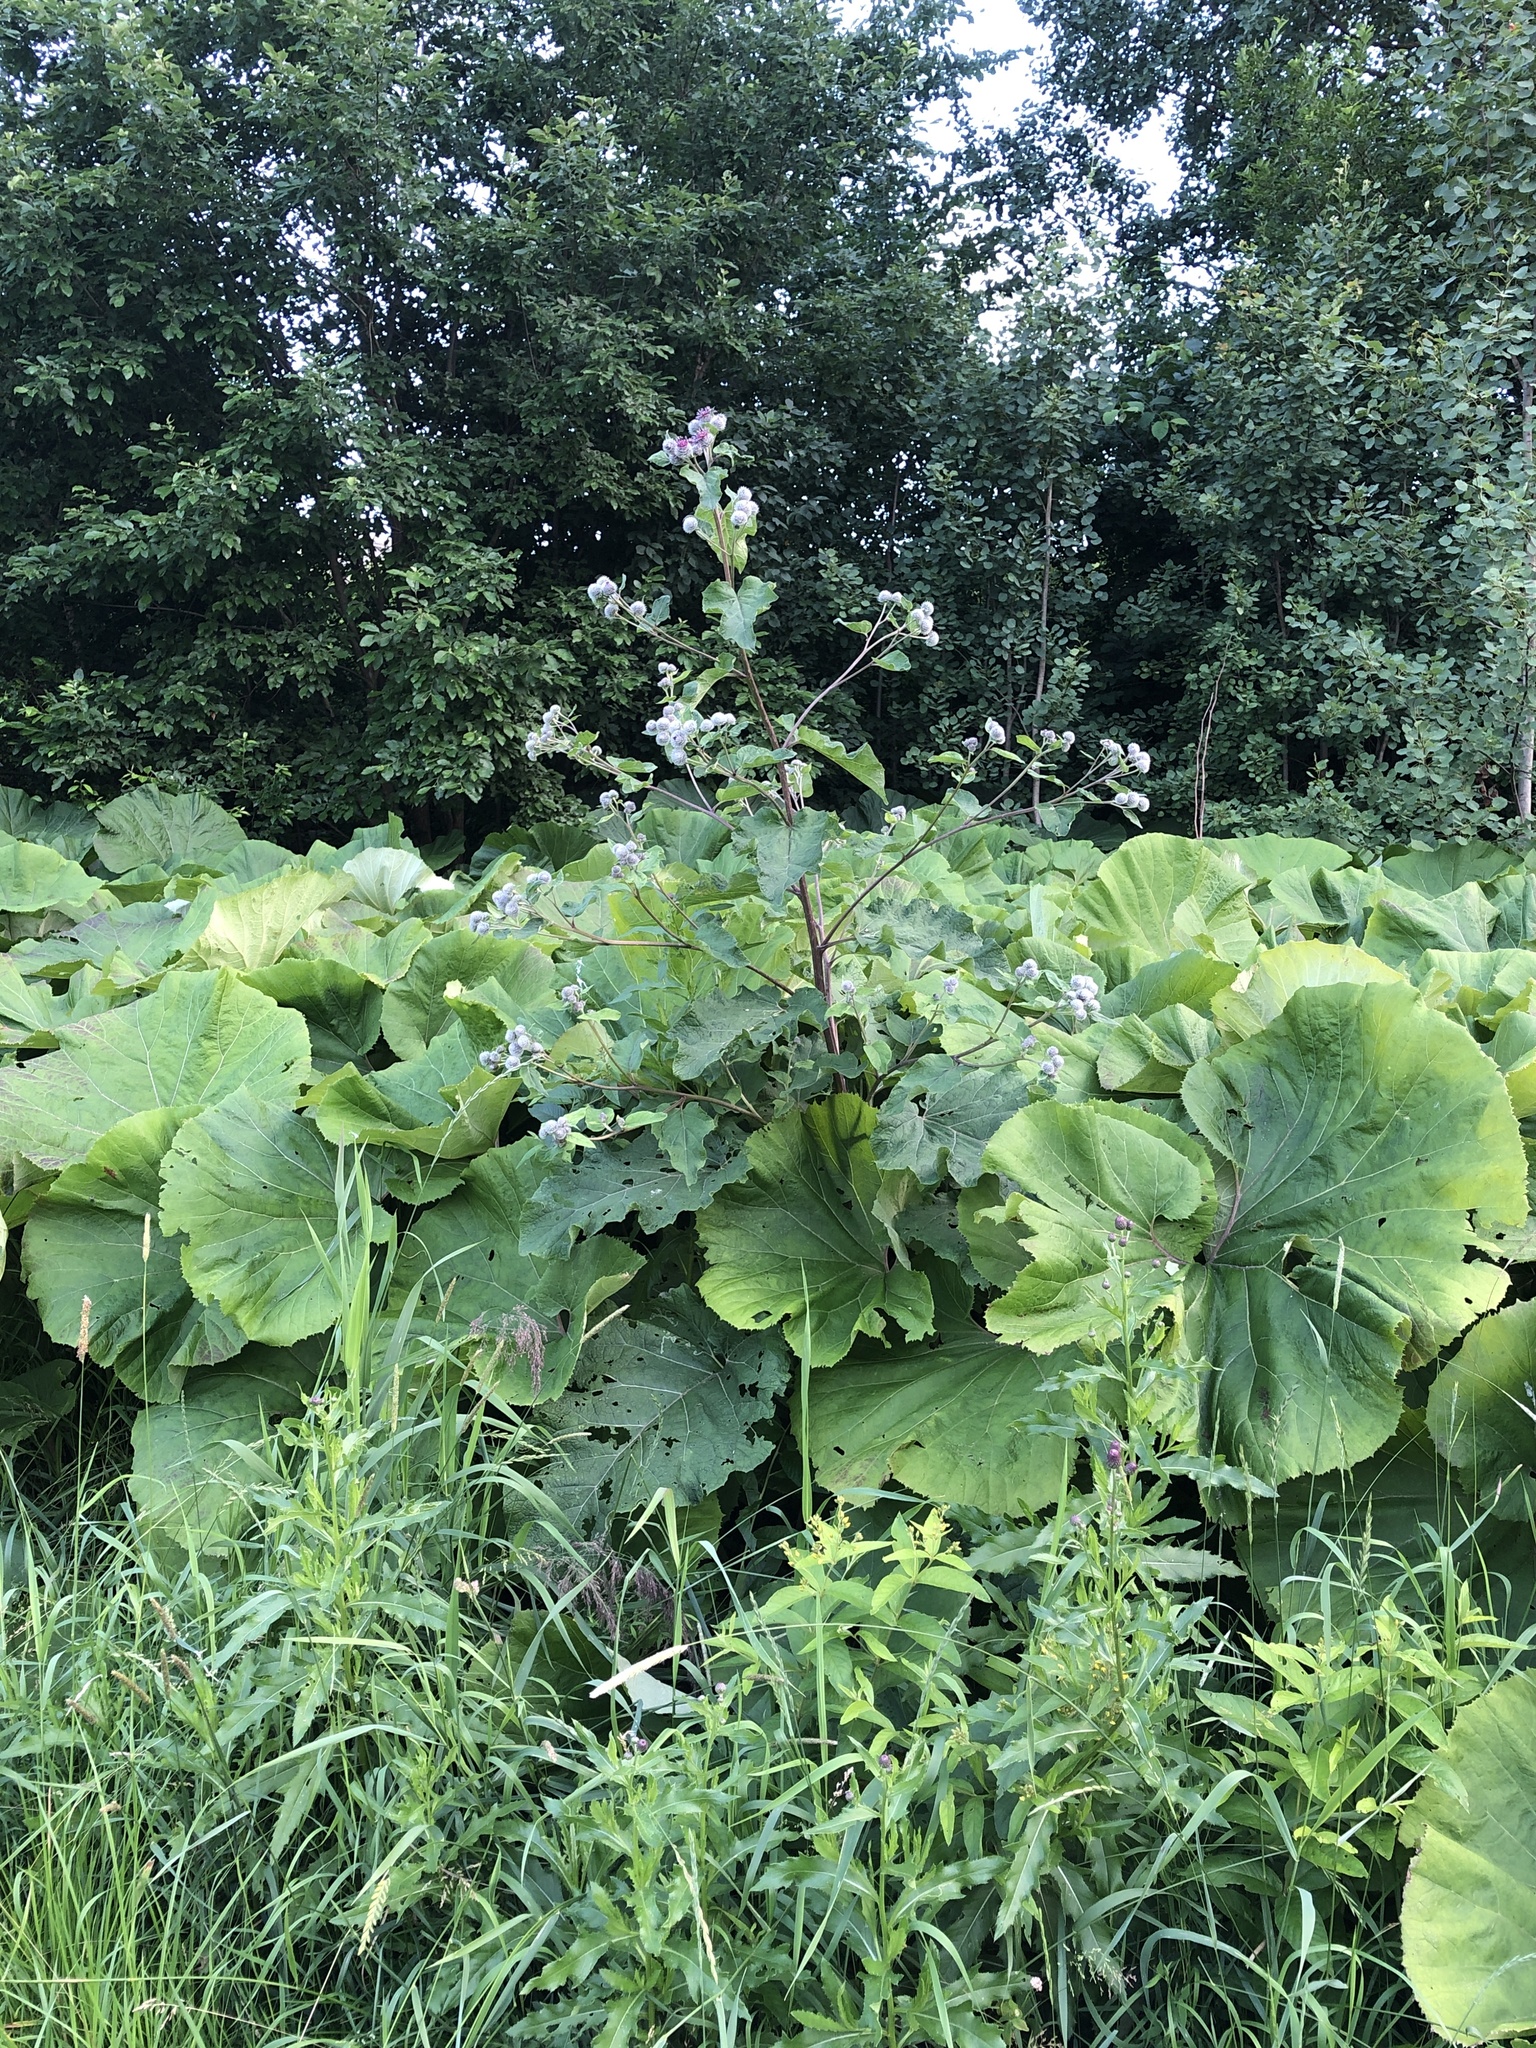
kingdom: Plantae
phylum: Tracheophyta
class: Magnoliopsida
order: Asterales
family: Asteraceae
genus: Arctium
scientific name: Arctium tomentosum
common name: Woolly burdock
